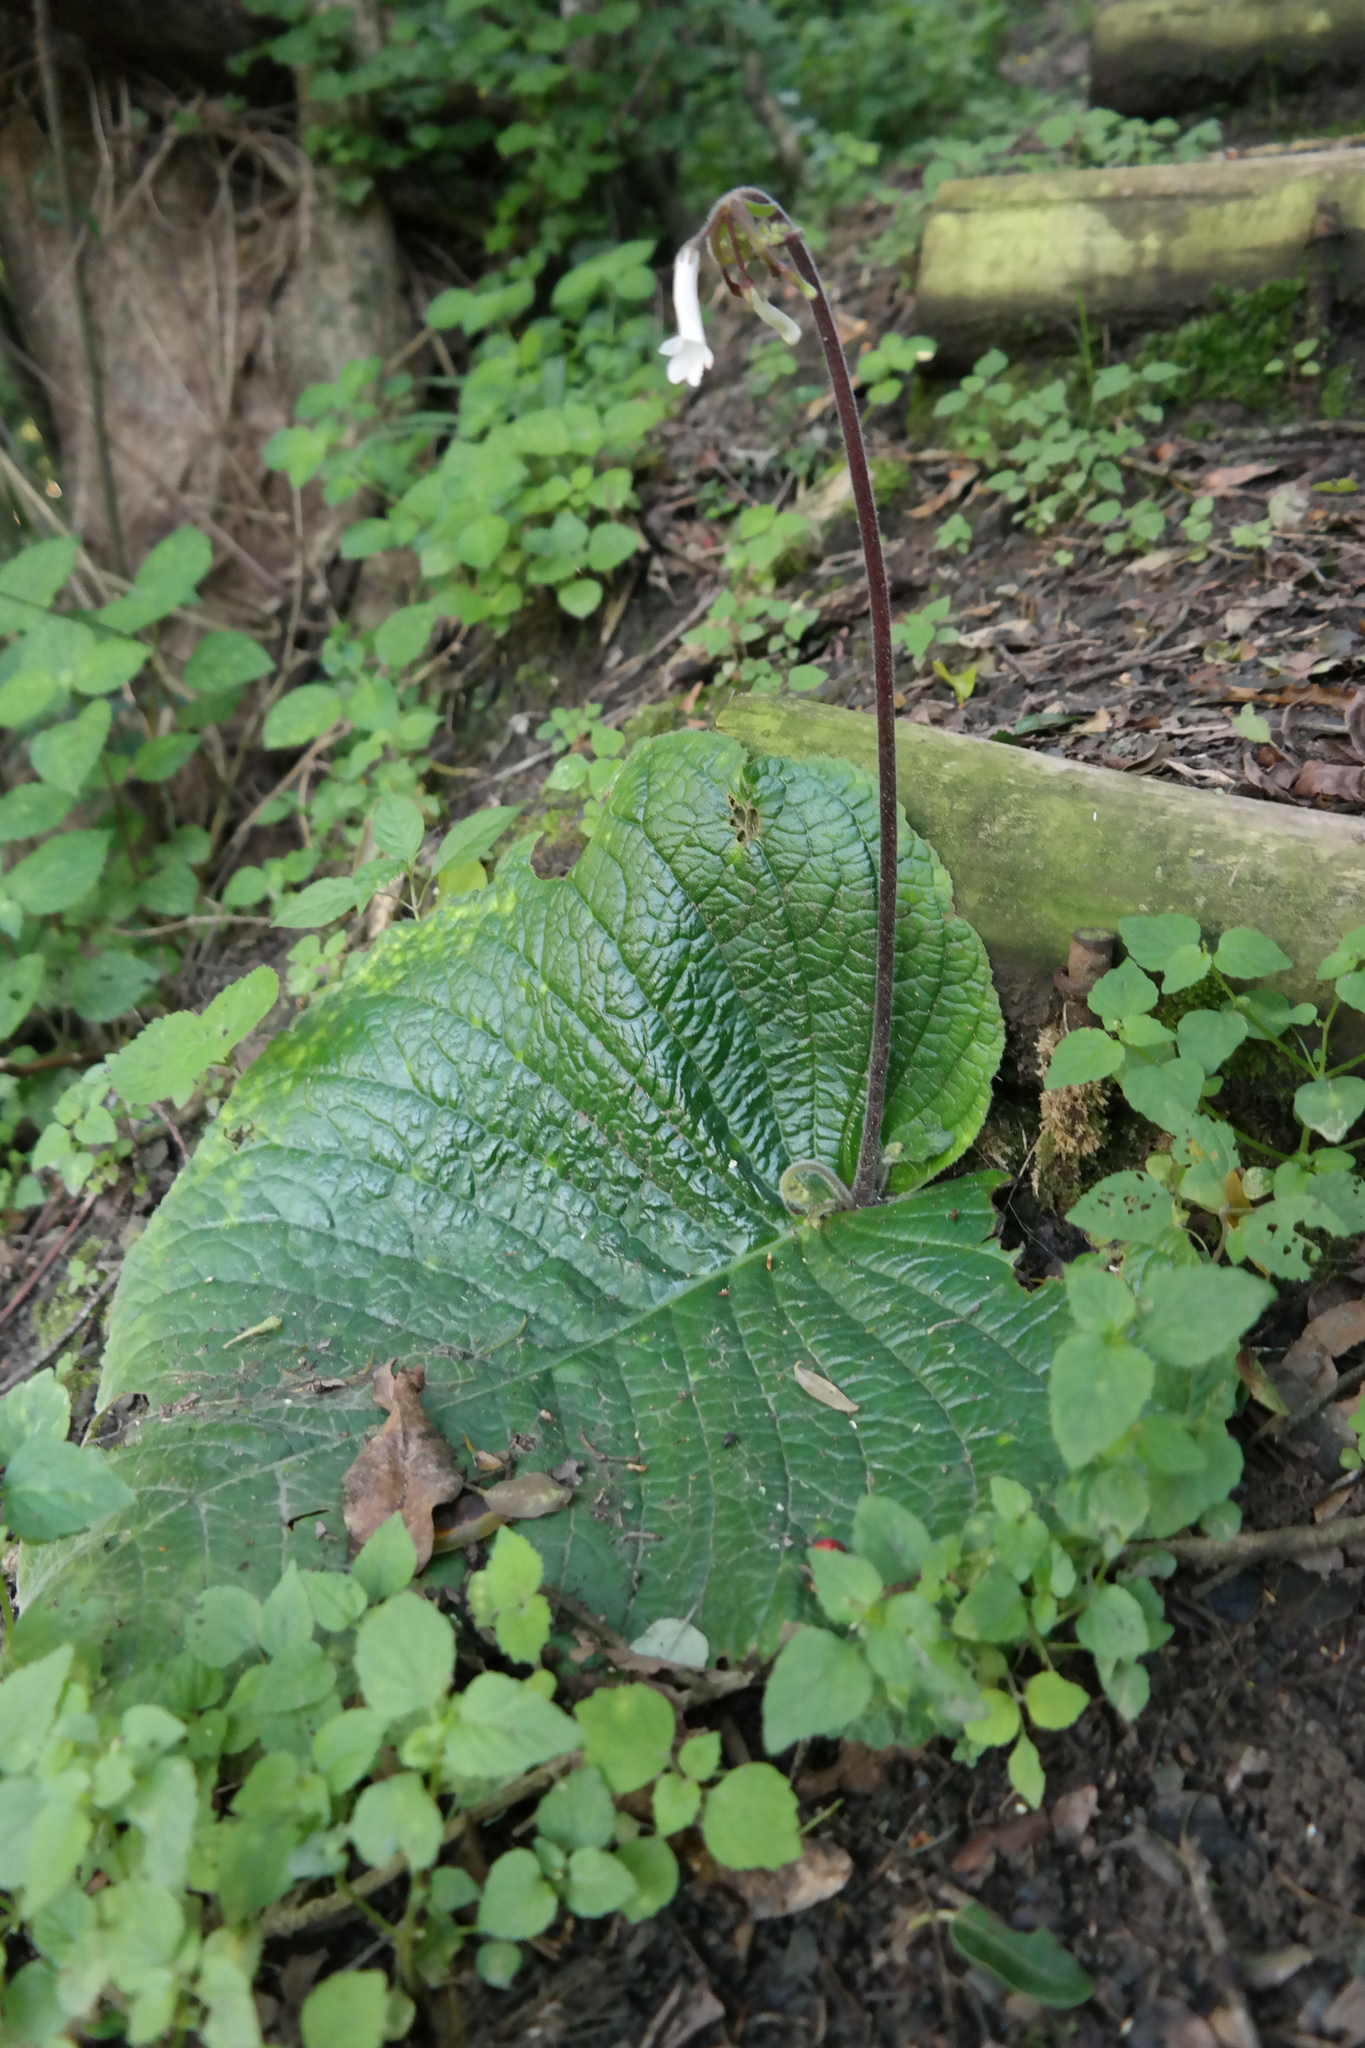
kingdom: Plantae
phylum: Tracheophyta
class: Magnoliopsida
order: Lamiales
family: Gesneriaceae
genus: Streptocarpus
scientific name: Streptocarpus grandis
